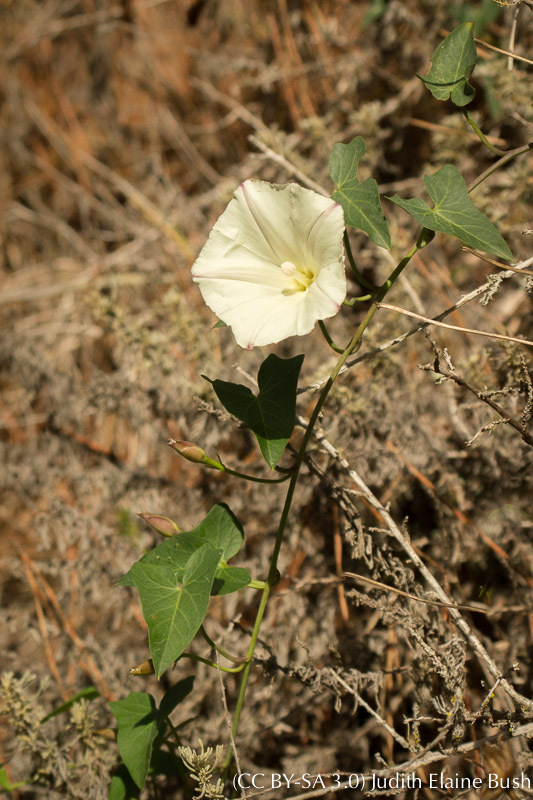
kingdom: Plantae
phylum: Tracheophyta
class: Magnoliopsida
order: Solanales
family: Convolvulaceae
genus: Calystegia
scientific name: Calystegia purpurata
